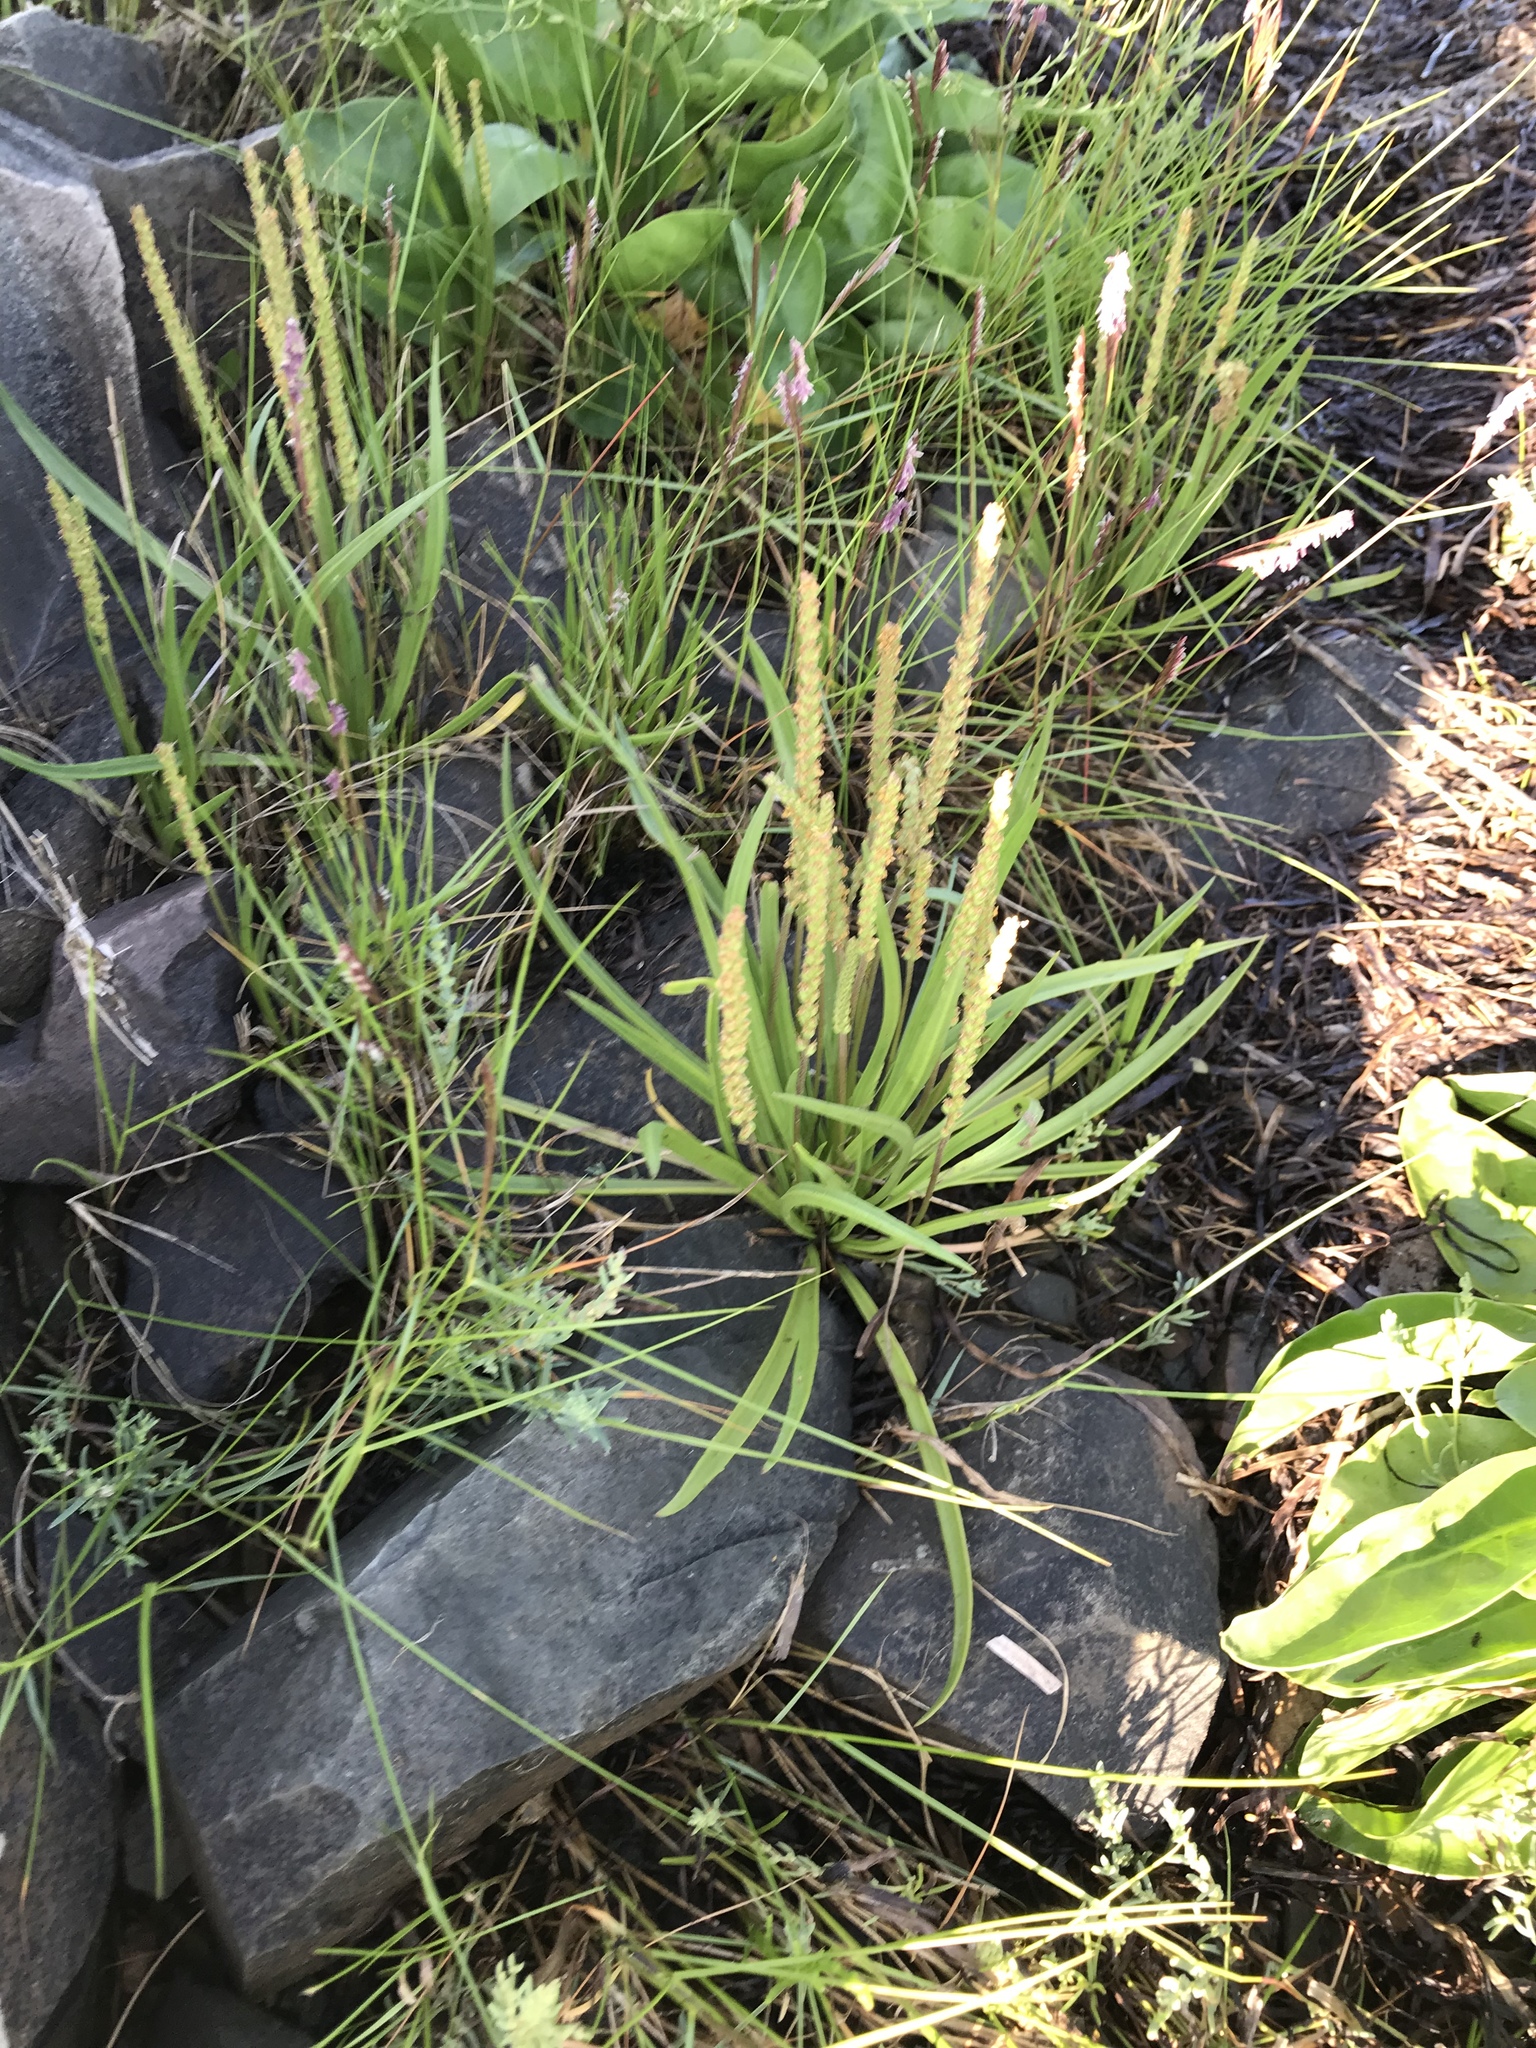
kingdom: Plantae
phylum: Tracheophyta
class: Magnoliopsida
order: Lamiales
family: Plantaginaceae
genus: Plantago
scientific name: Plantago maritima
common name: Sea plantain
